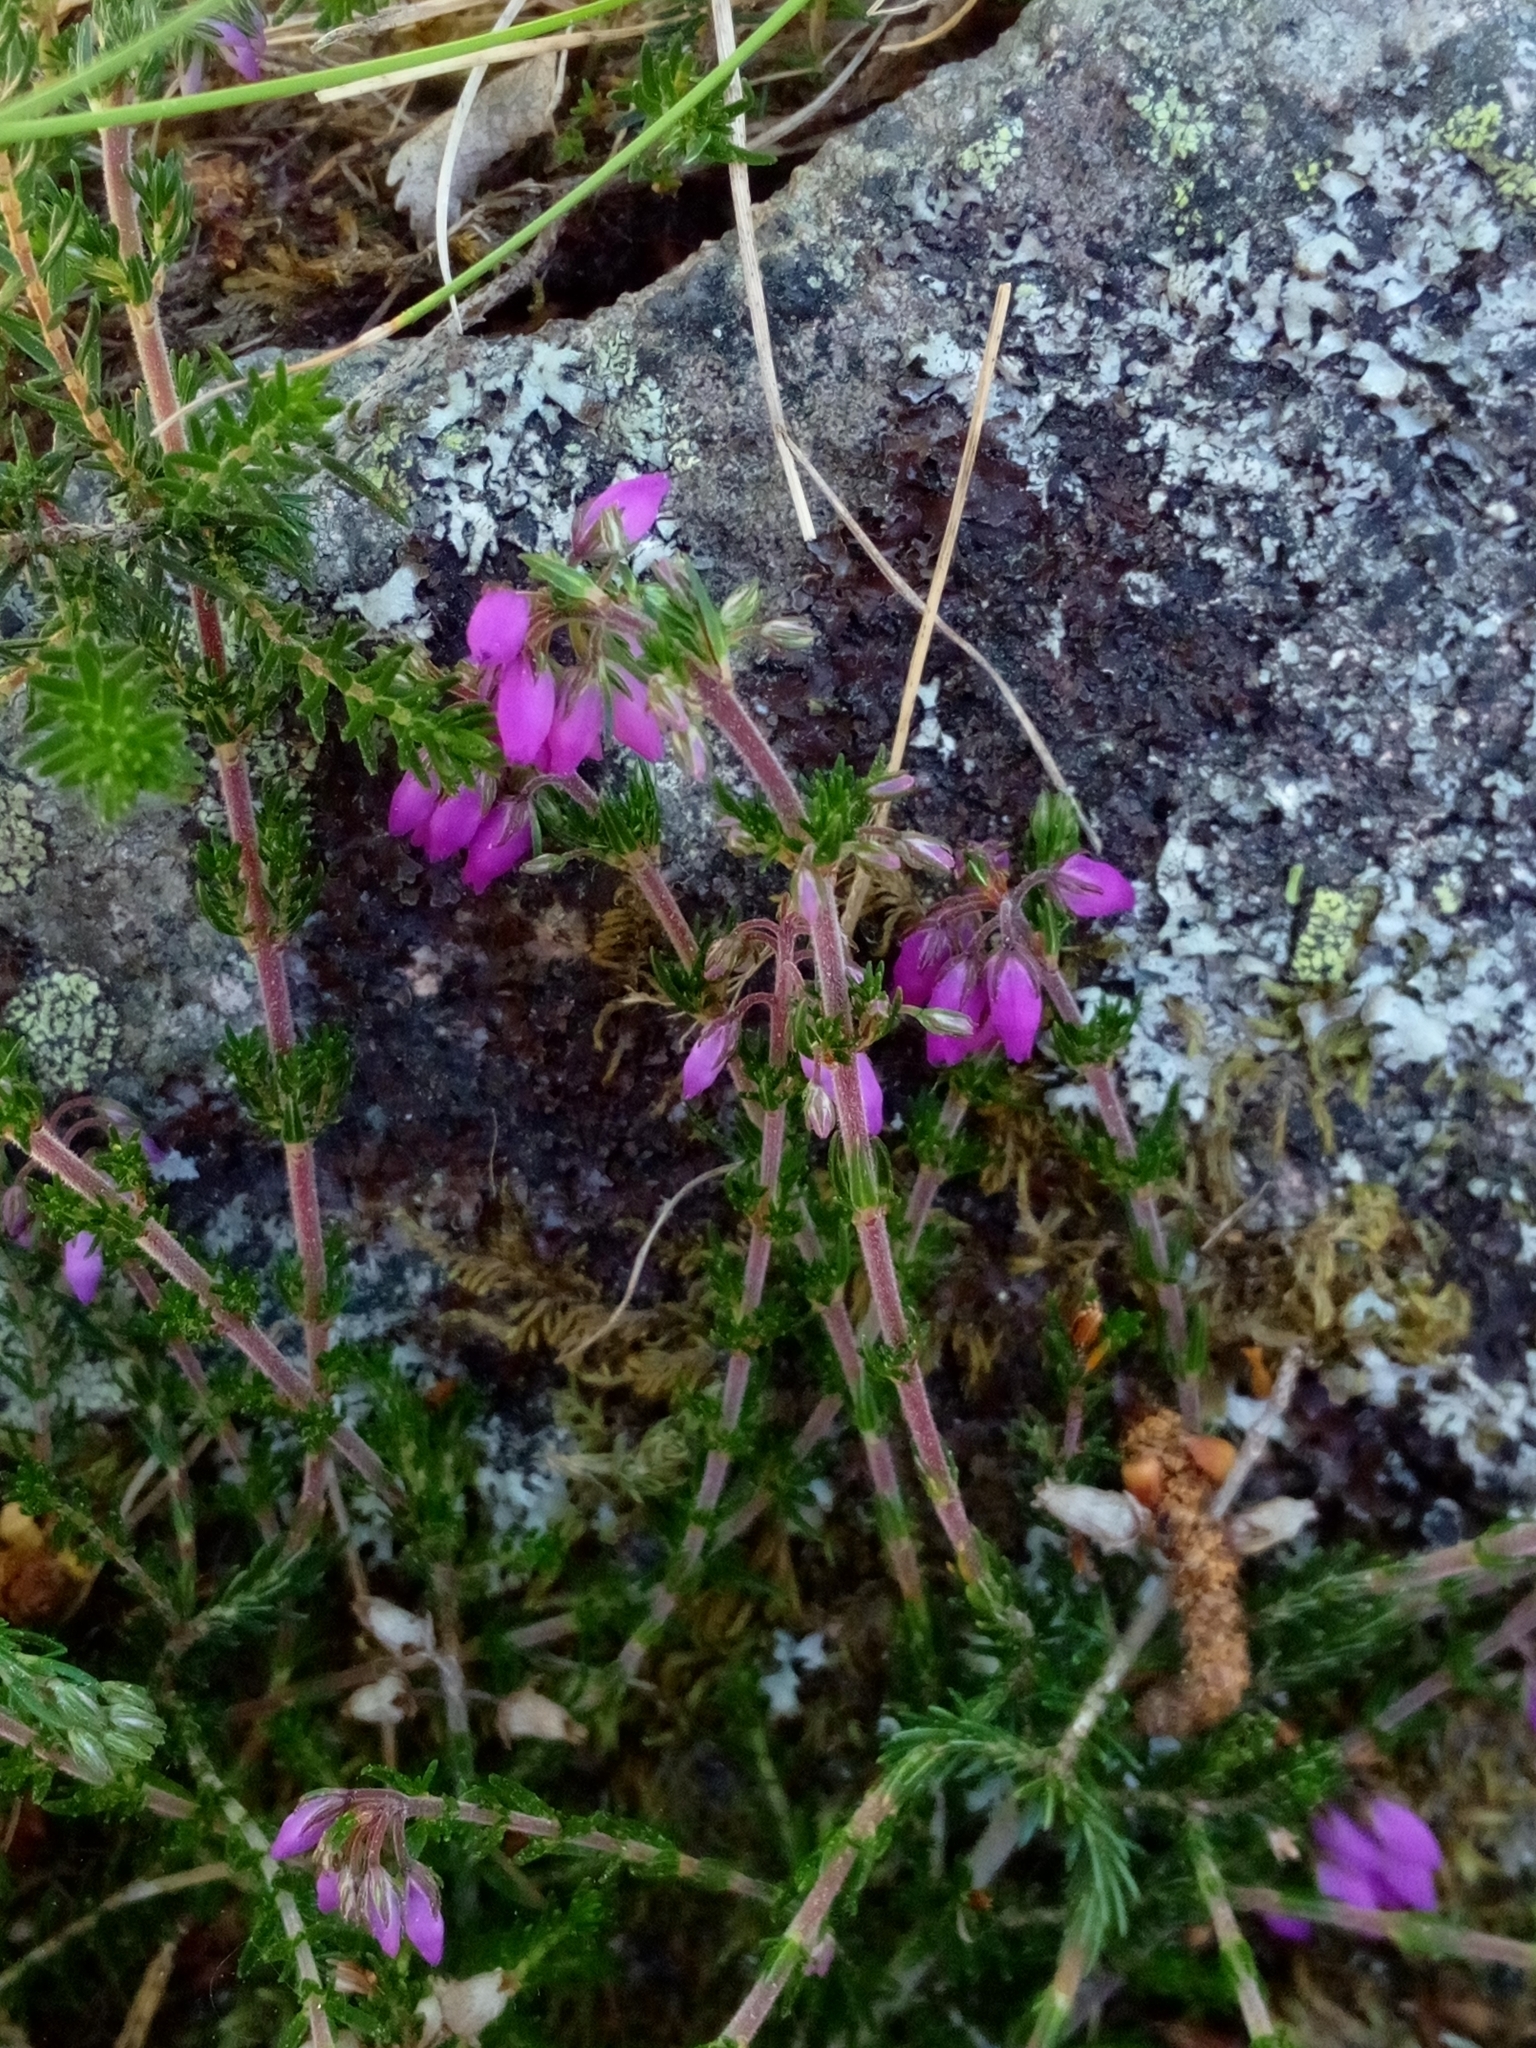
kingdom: Plantae
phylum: Tracheophyta
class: Magnoliopsida
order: Ericales
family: Ericaceae
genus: Erica
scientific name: Erica cinerea
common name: Bell heather
